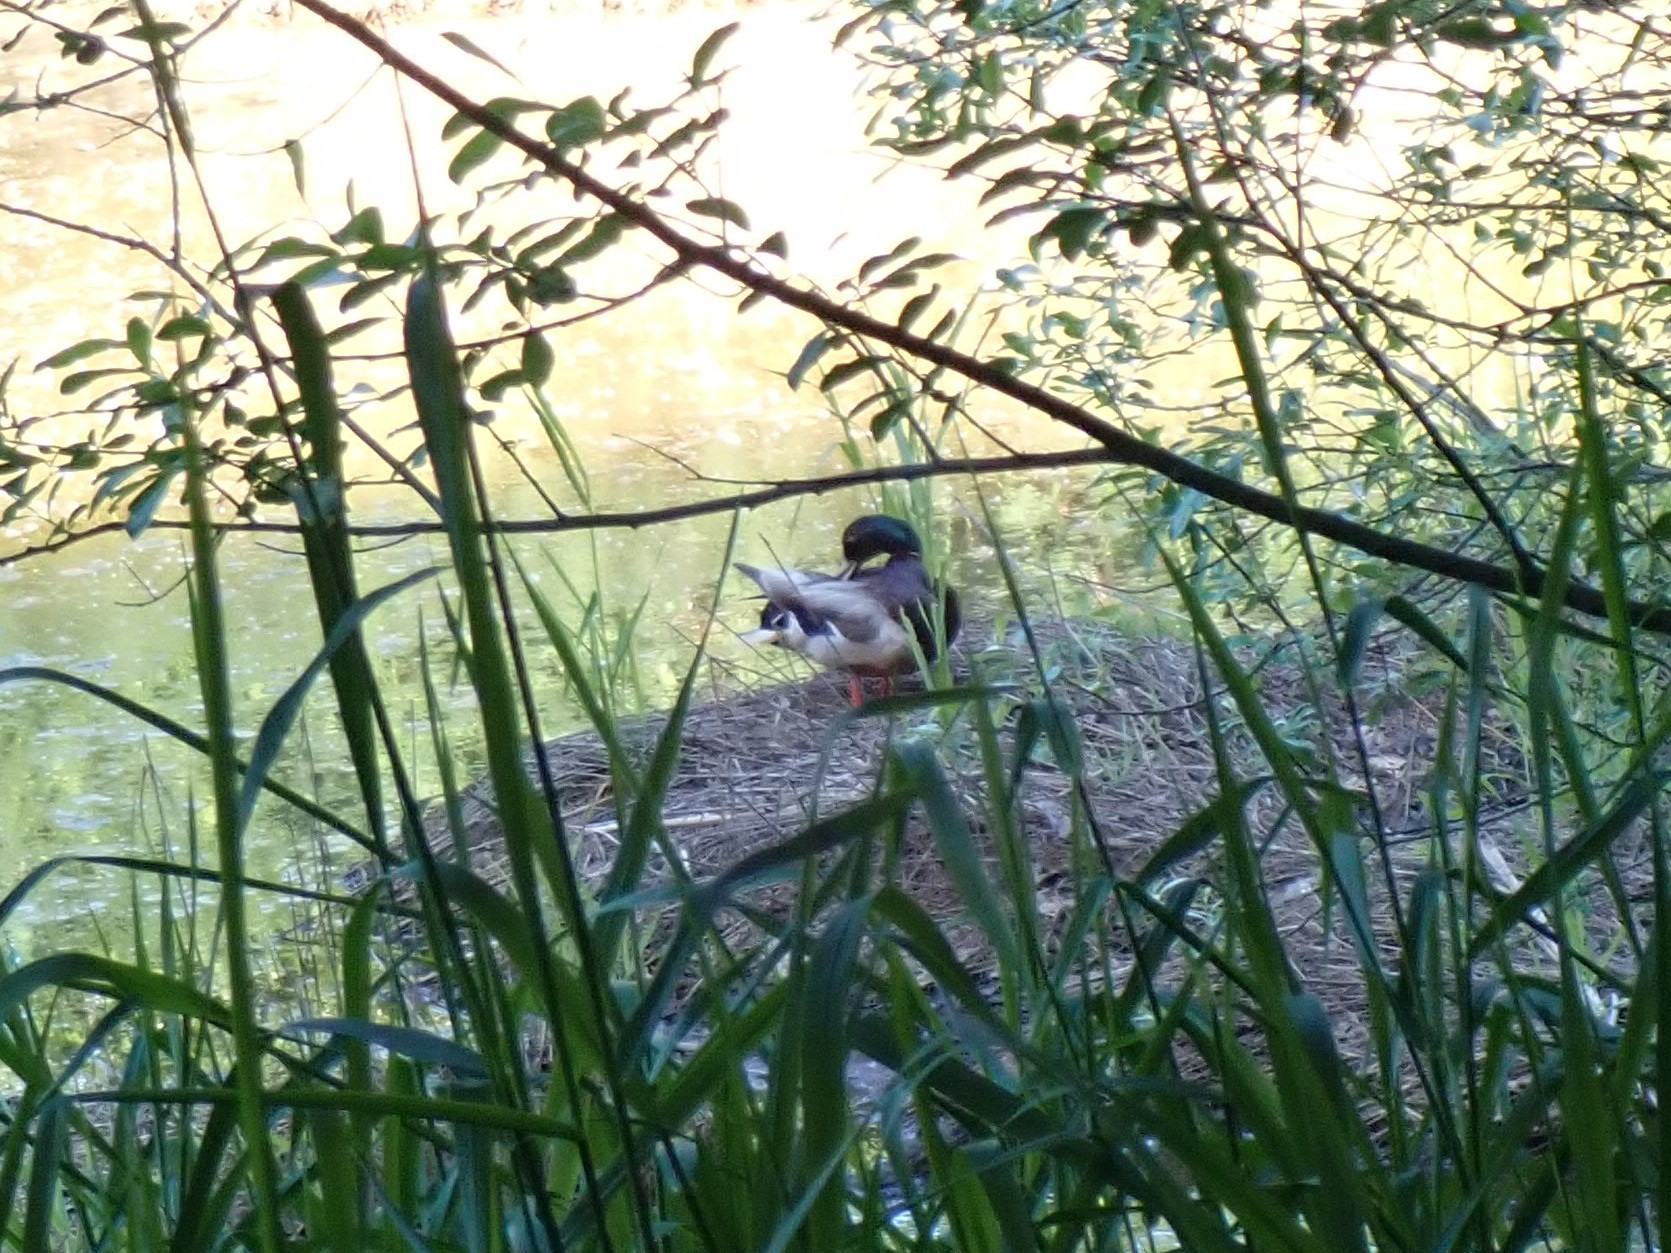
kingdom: Animalia
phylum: Chordata
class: Aves
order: Anseriformes
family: Anatidae
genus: Anas
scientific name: Anas platyrhynchos
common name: Mallard
